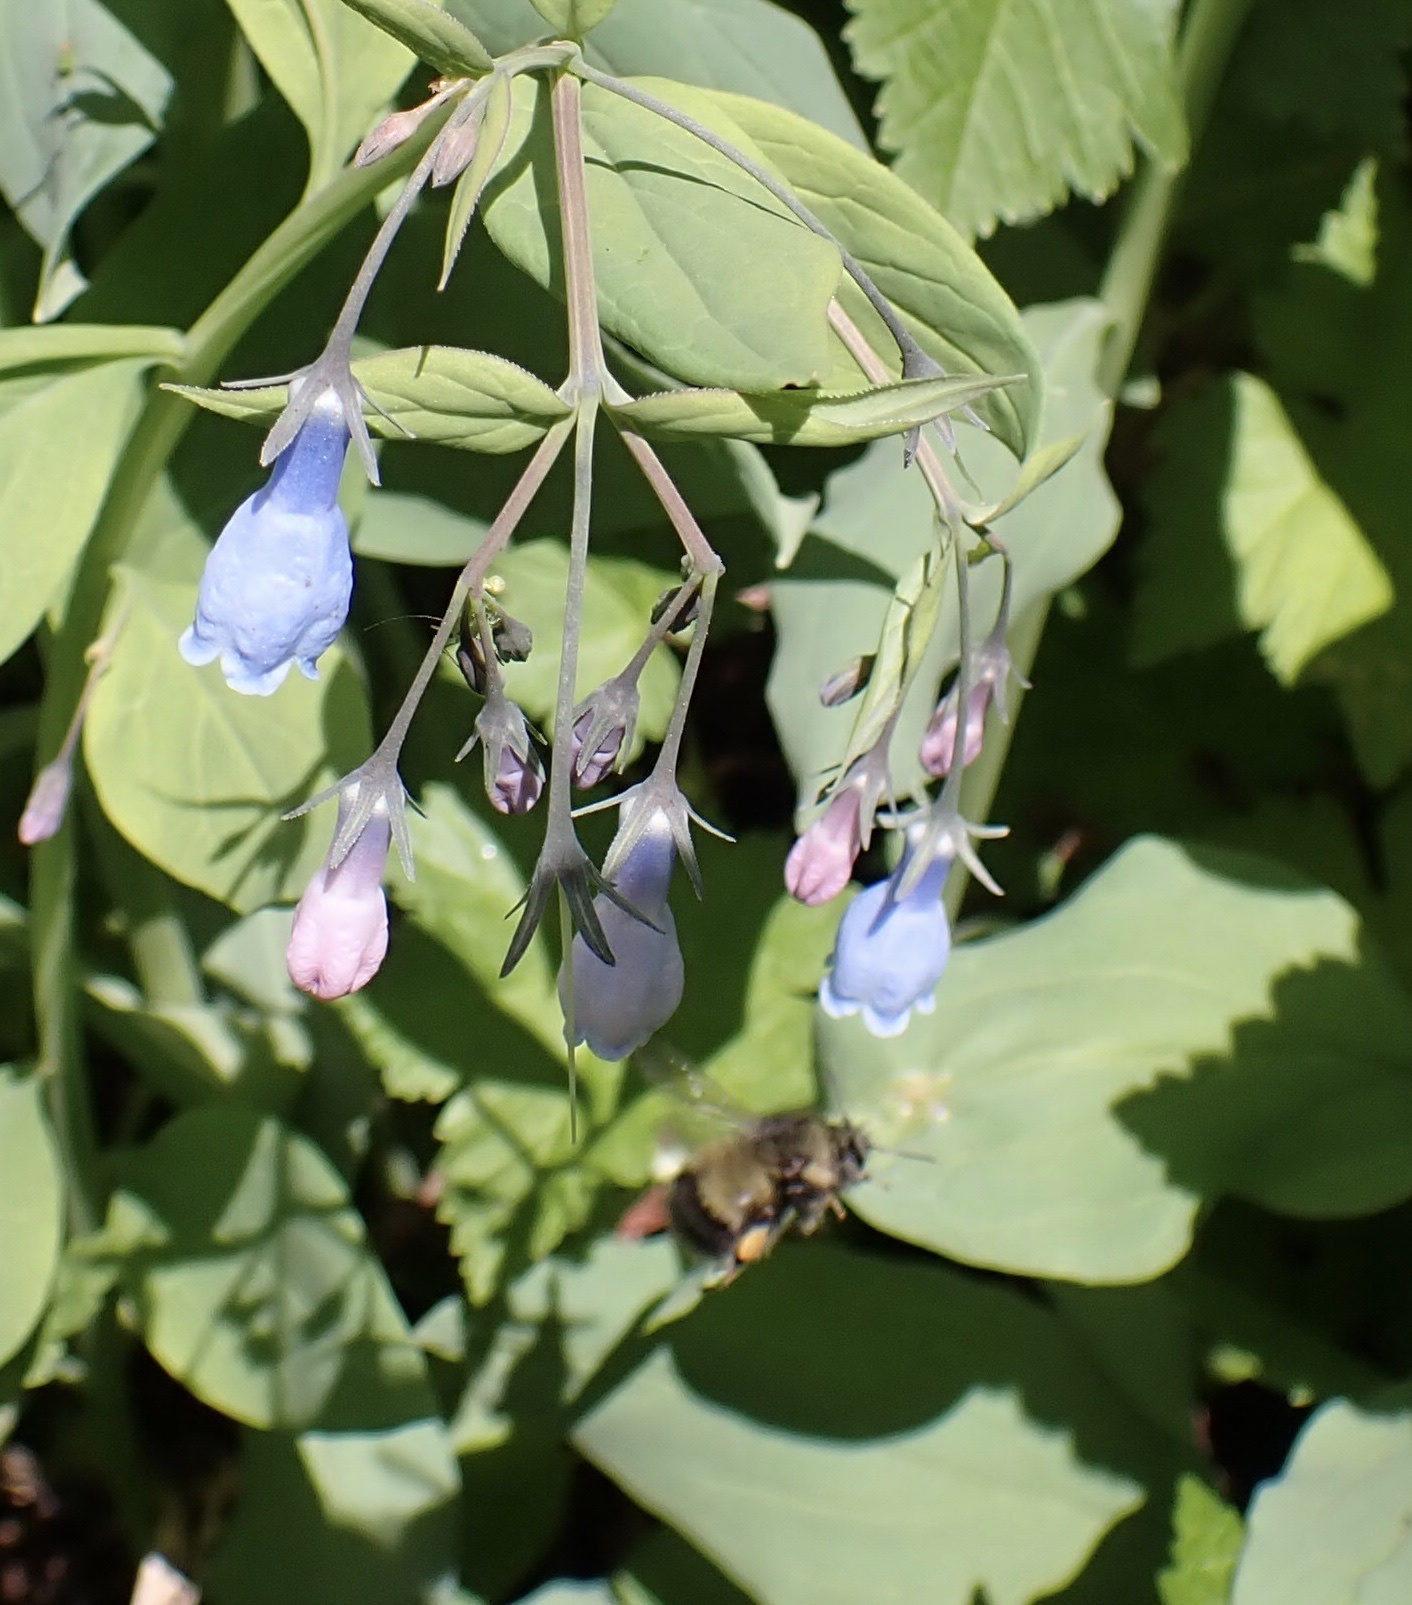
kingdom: Plantae
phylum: Tracheophyta
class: Magnoliopsida
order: Boraginales
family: Boraginaceae
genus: Mertensia
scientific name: Mertensia paniculata
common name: Panicled bluebells
